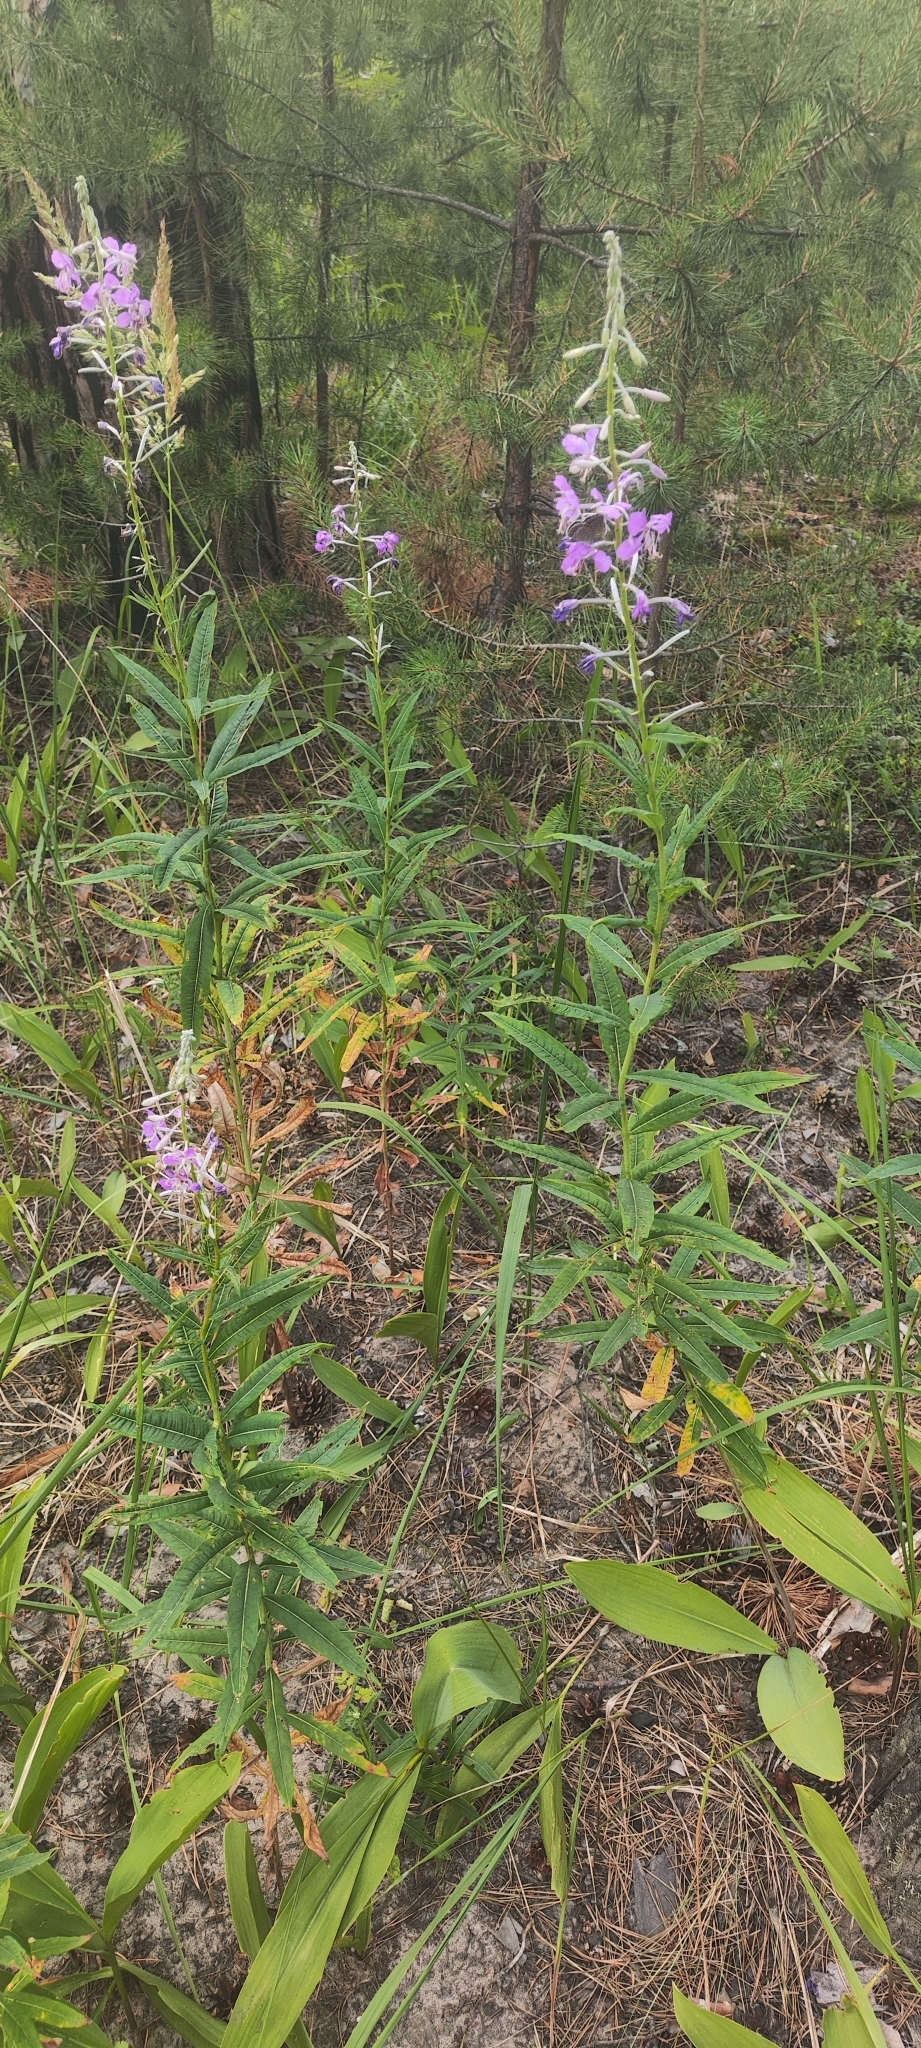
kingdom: Plantae
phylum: Tracheophyta
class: Magnoliopsida
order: Myrtales
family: Onagraceae
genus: Chamaenerion
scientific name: Chamaenerion angustifolium
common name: Fireweed
